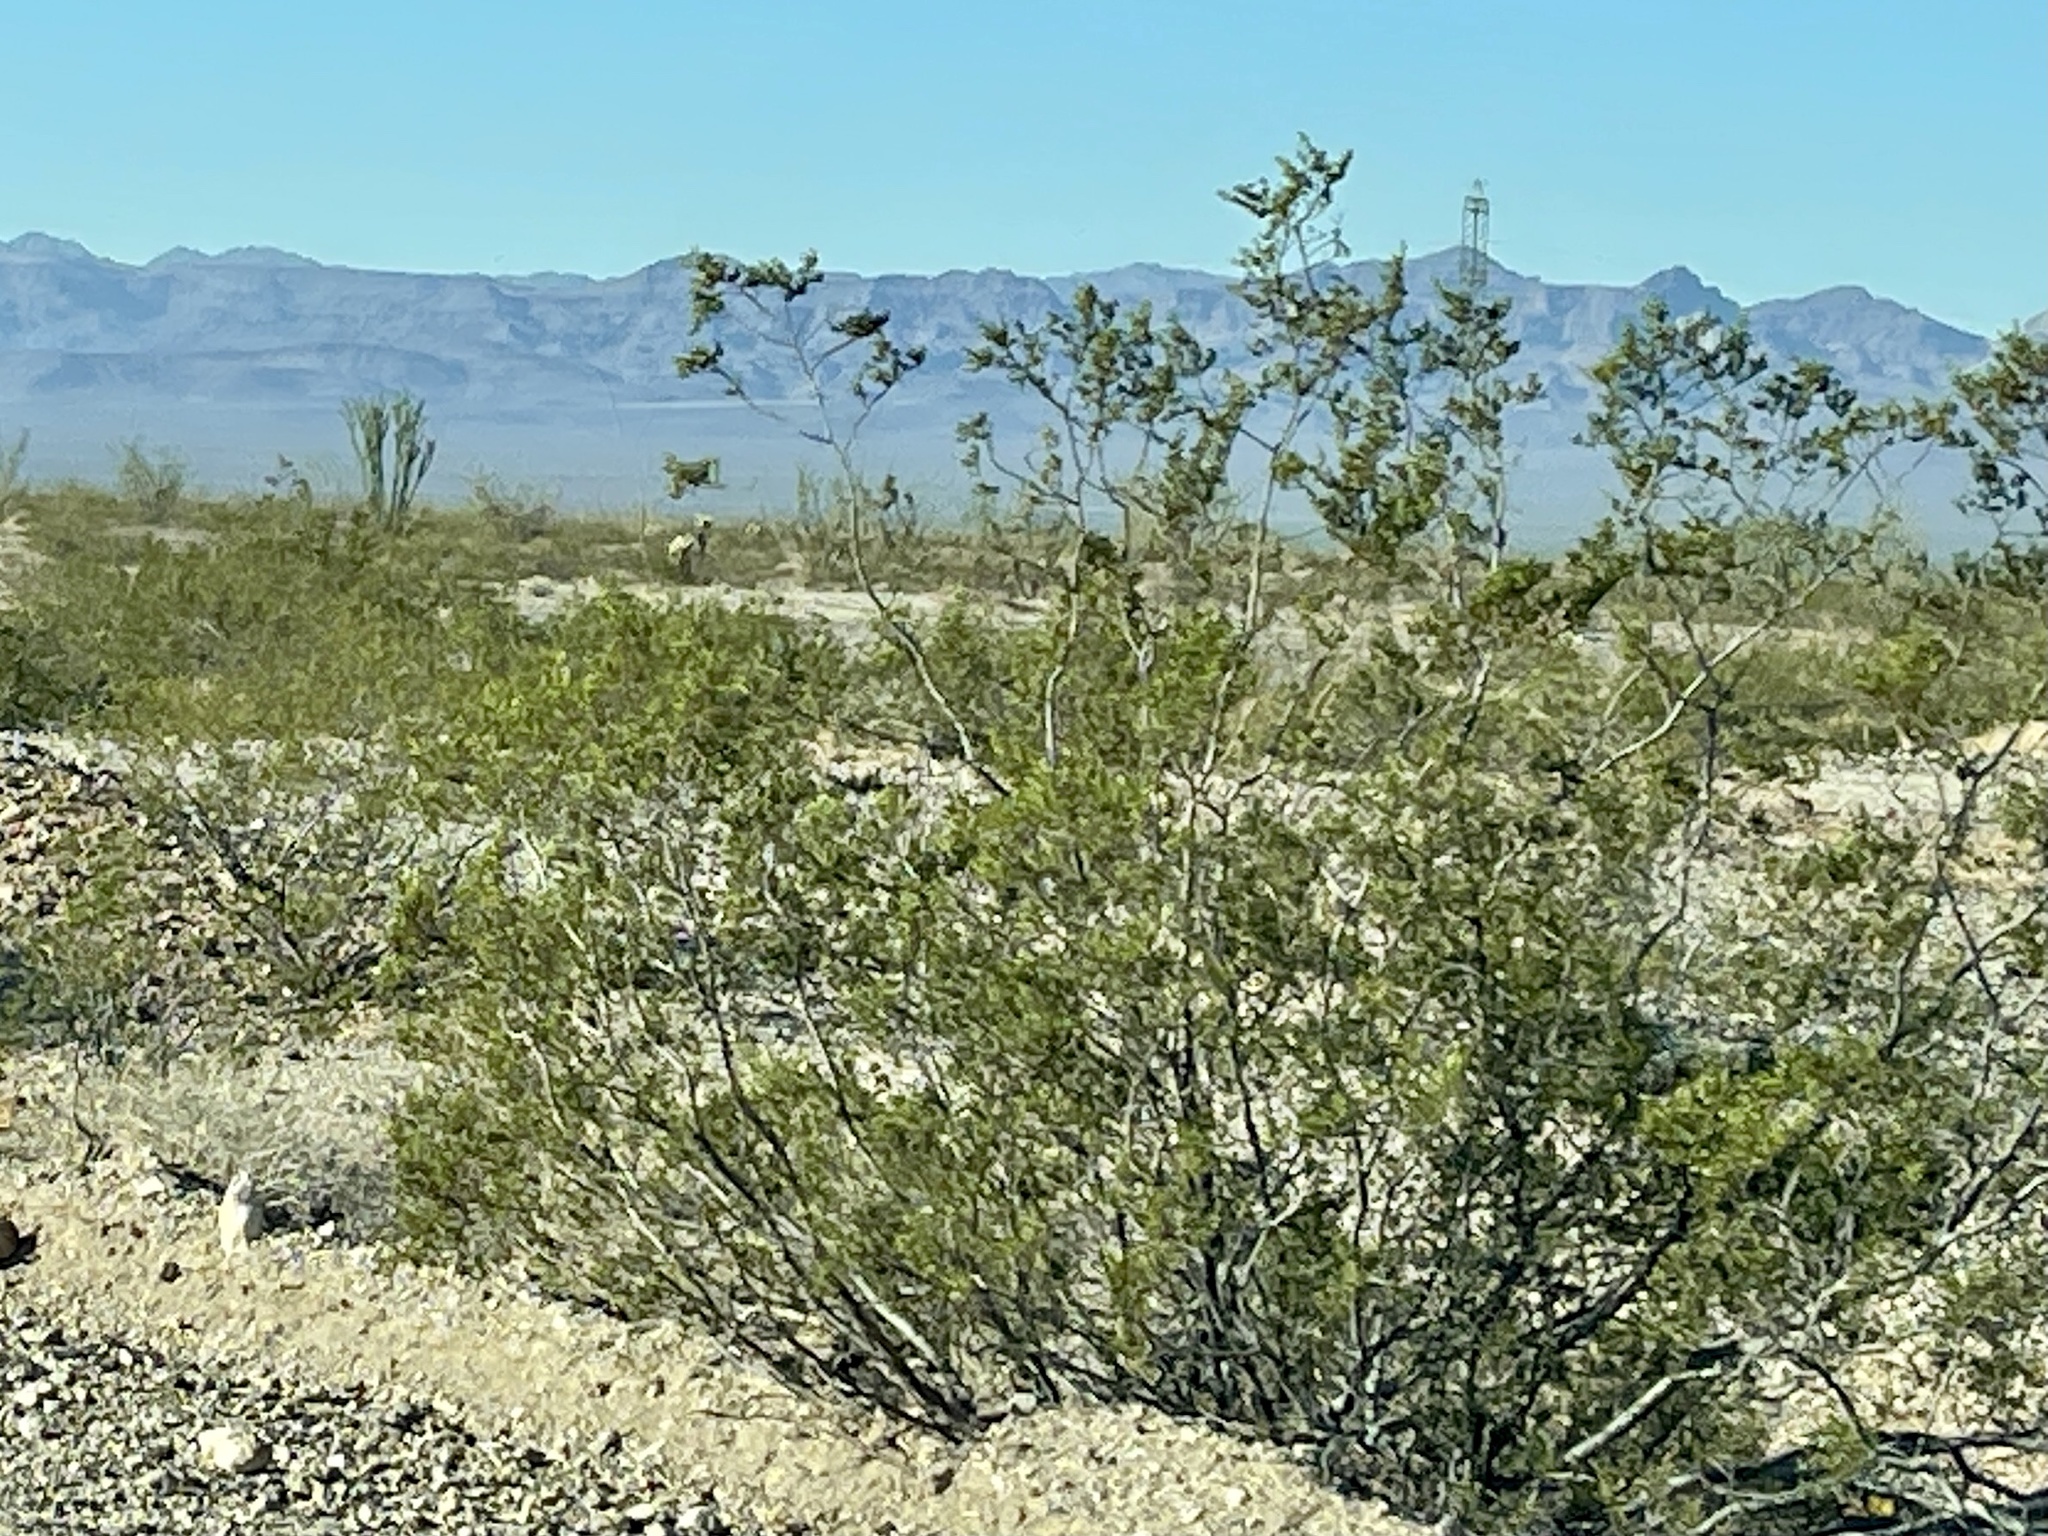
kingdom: Plantae
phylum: Tracheophyta
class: Magnoliopsida
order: Zygophyllales
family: Zygophyllaceae
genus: Larrea
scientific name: Larrea tridentata
